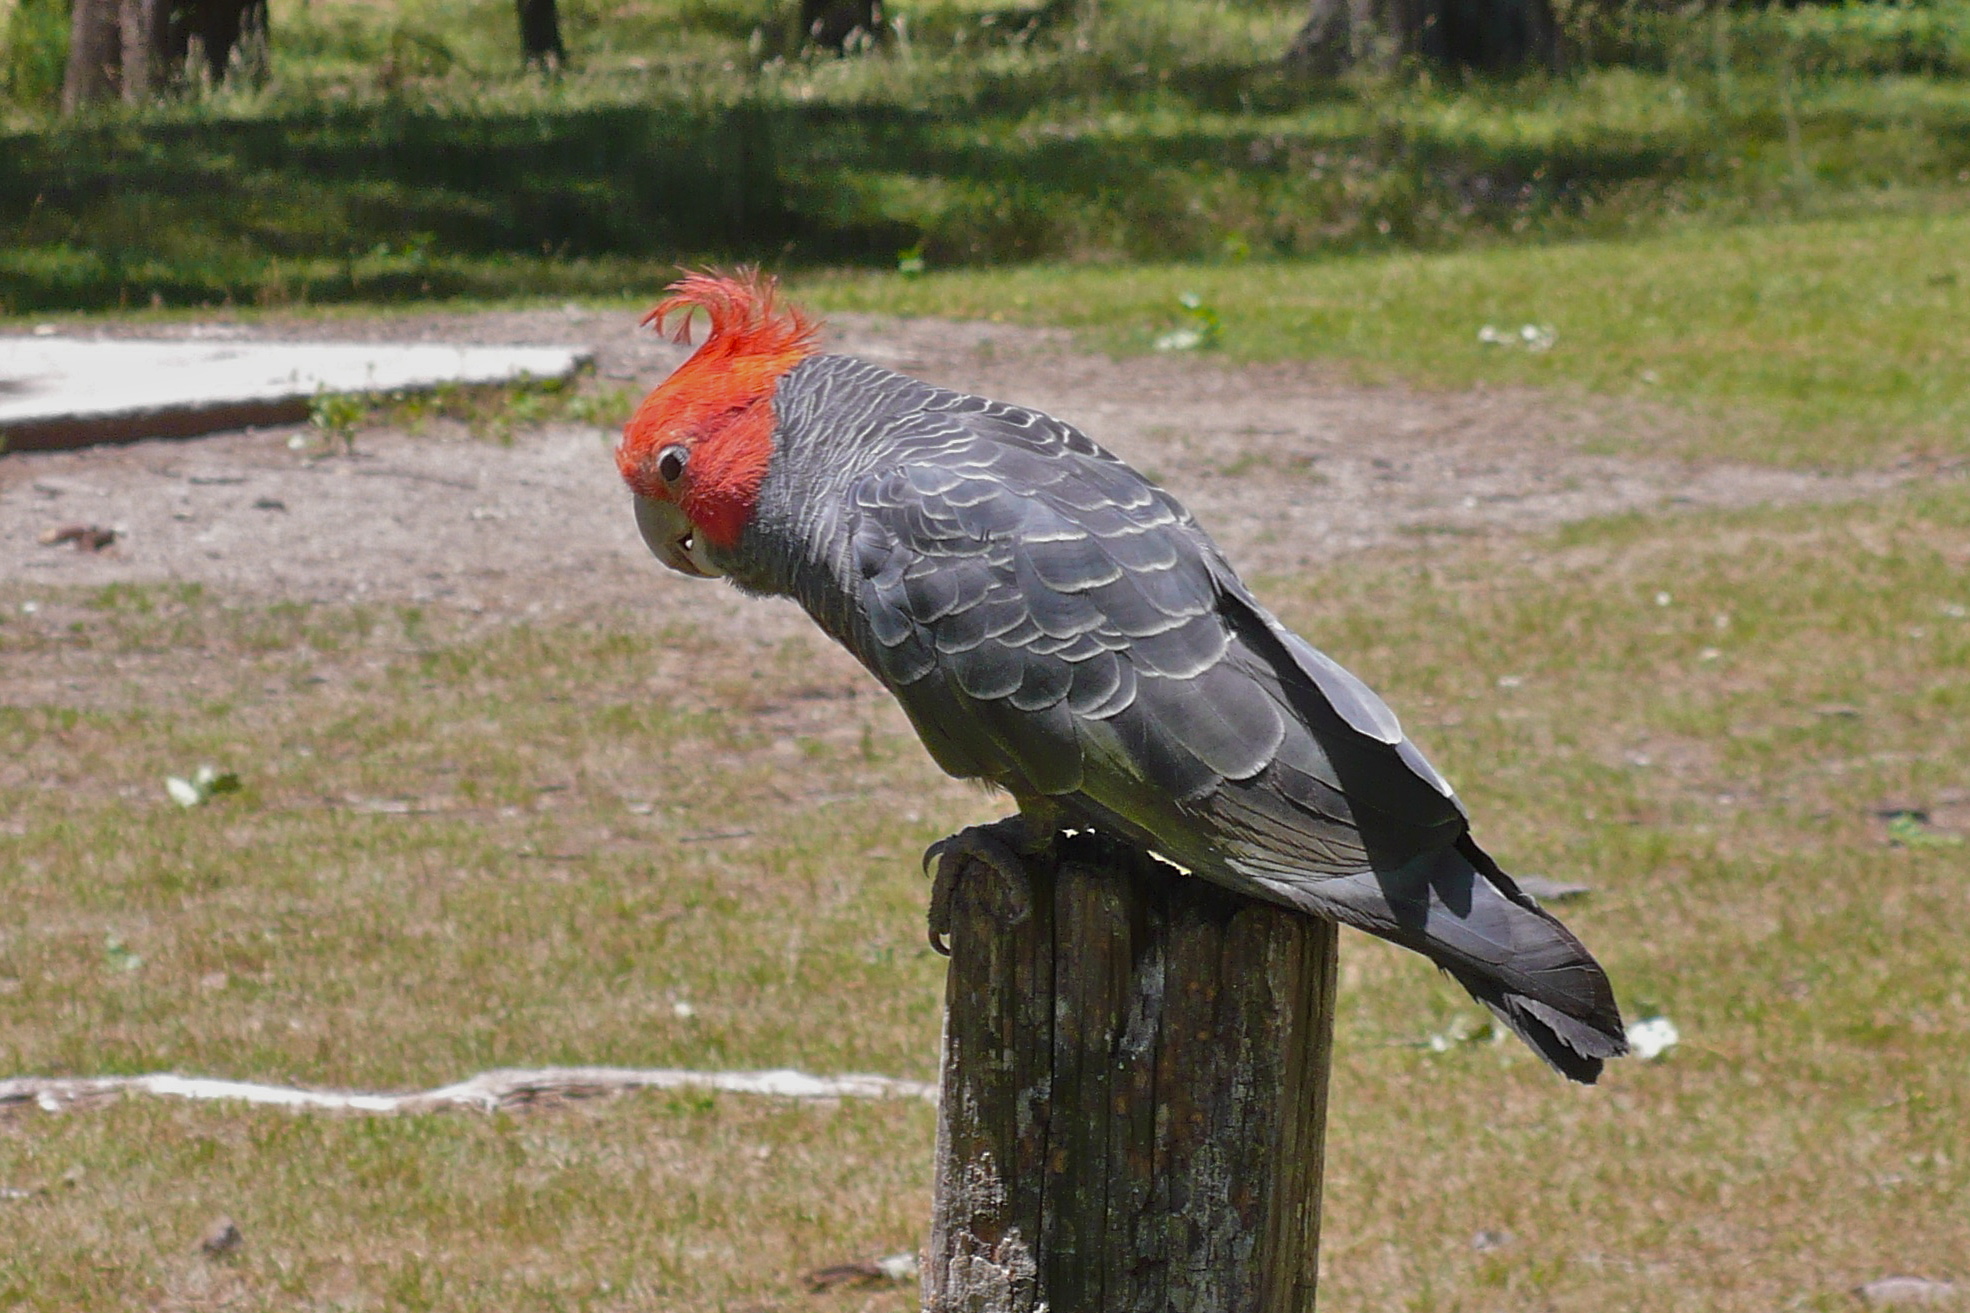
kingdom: Animalia
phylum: Chordata
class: Aves
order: Psittaciformes
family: Psittacidae
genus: Callocephalon
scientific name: Callocephalon fimbriatum
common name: Gang-gang cockatoo
